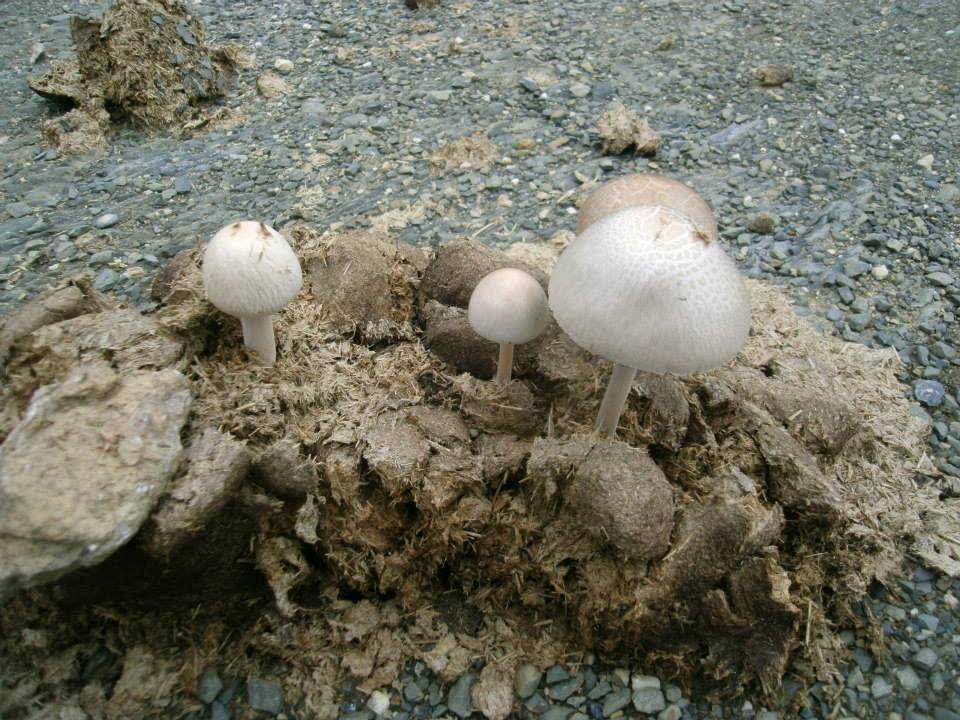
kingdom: Fungi
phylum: Basidiomycota
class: Agaricomycetes
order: Agaricales
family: Bolbitiaceae
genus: Panaeolus
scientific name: Panaeolus antillarum
